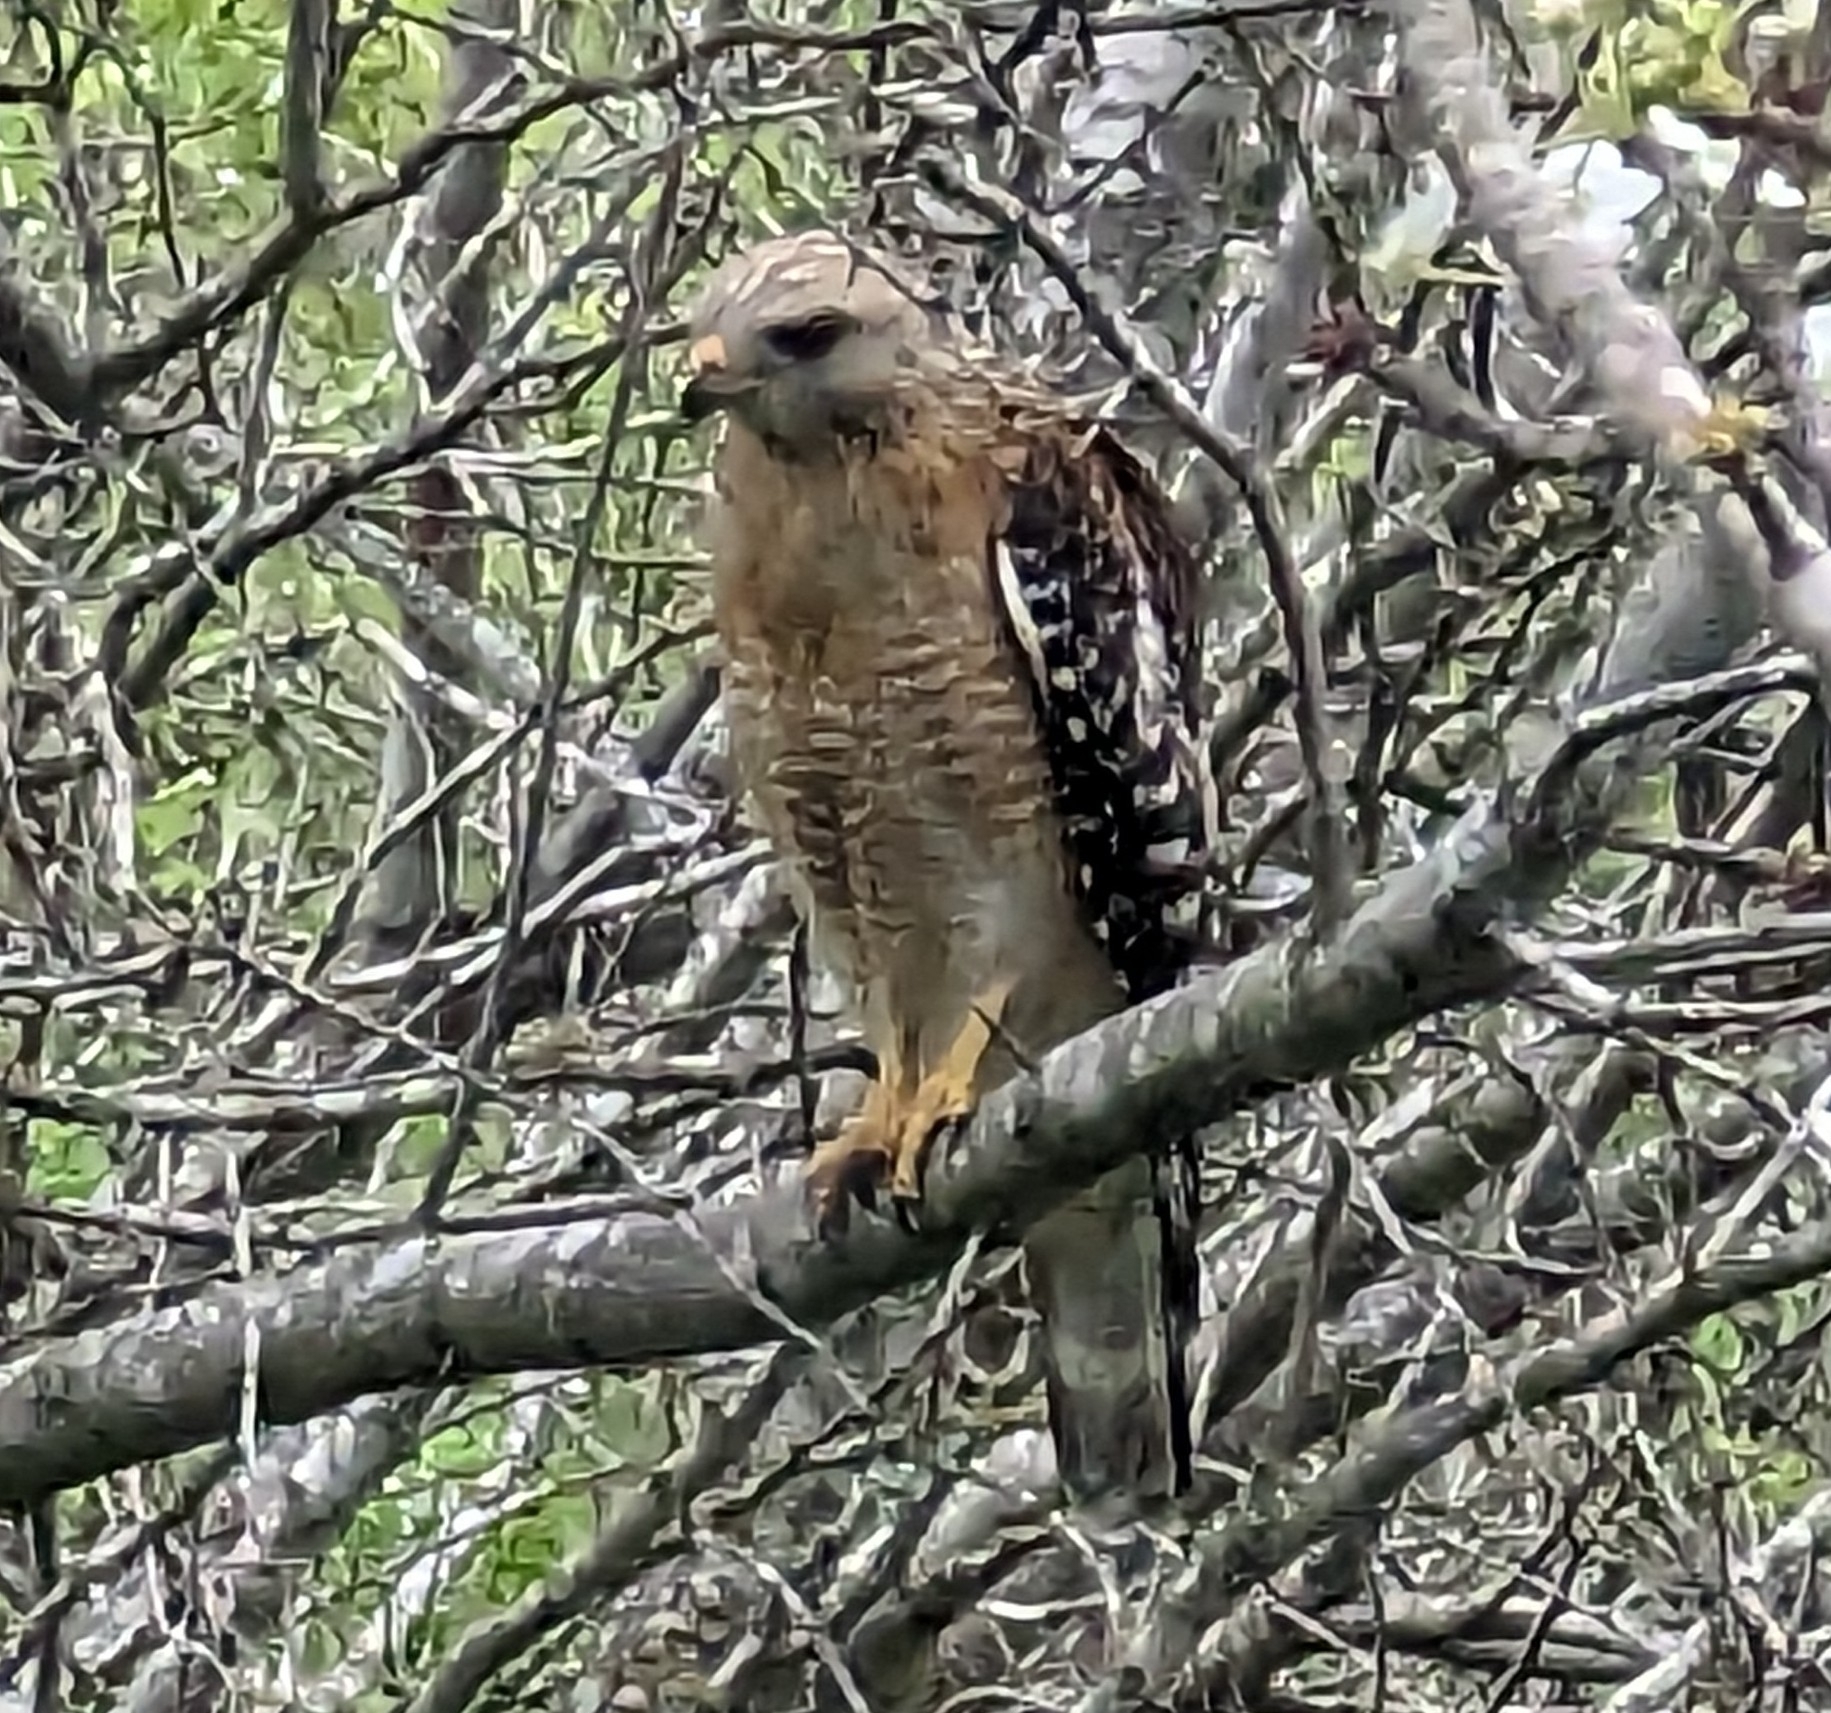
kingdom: Animalia
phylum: Chordata
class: Aves
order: Accipitriformes
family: Accipitridae
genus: Buteo
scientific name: Buteo lineatus
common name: Red-shouldered hawk
